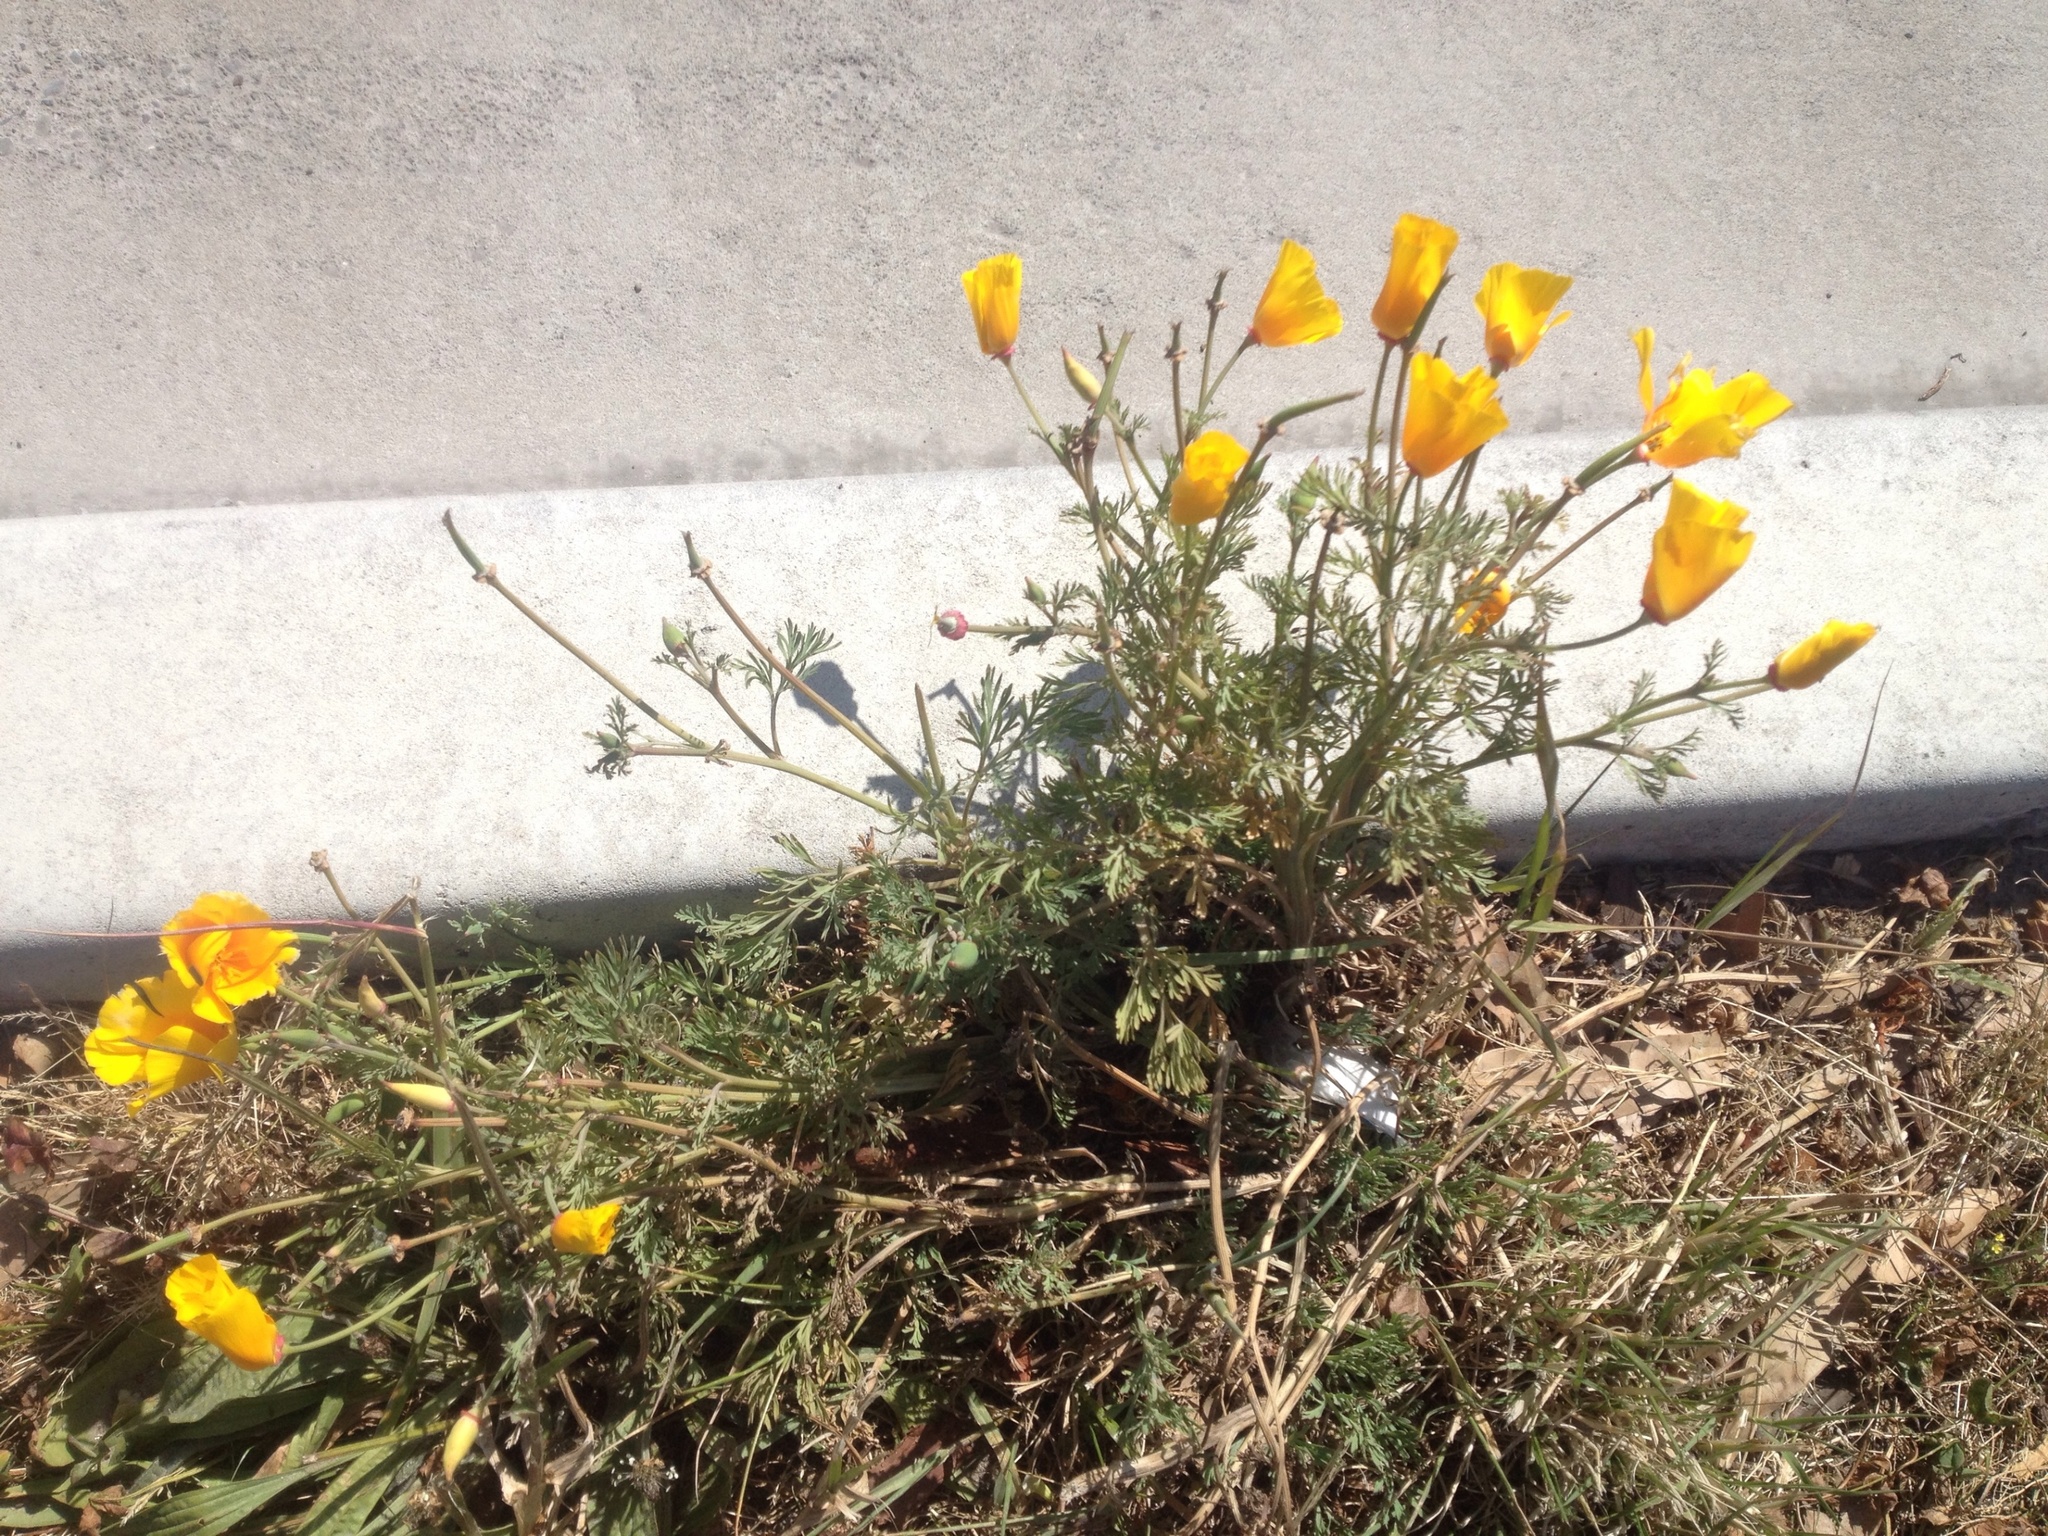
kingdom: Plantae
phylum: Tracheophyta
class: Magnoliopsida
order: Ranunculales
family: Papaveraceae
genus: Eschscholzia
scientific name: Eschscholzia californica
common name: California poppy
